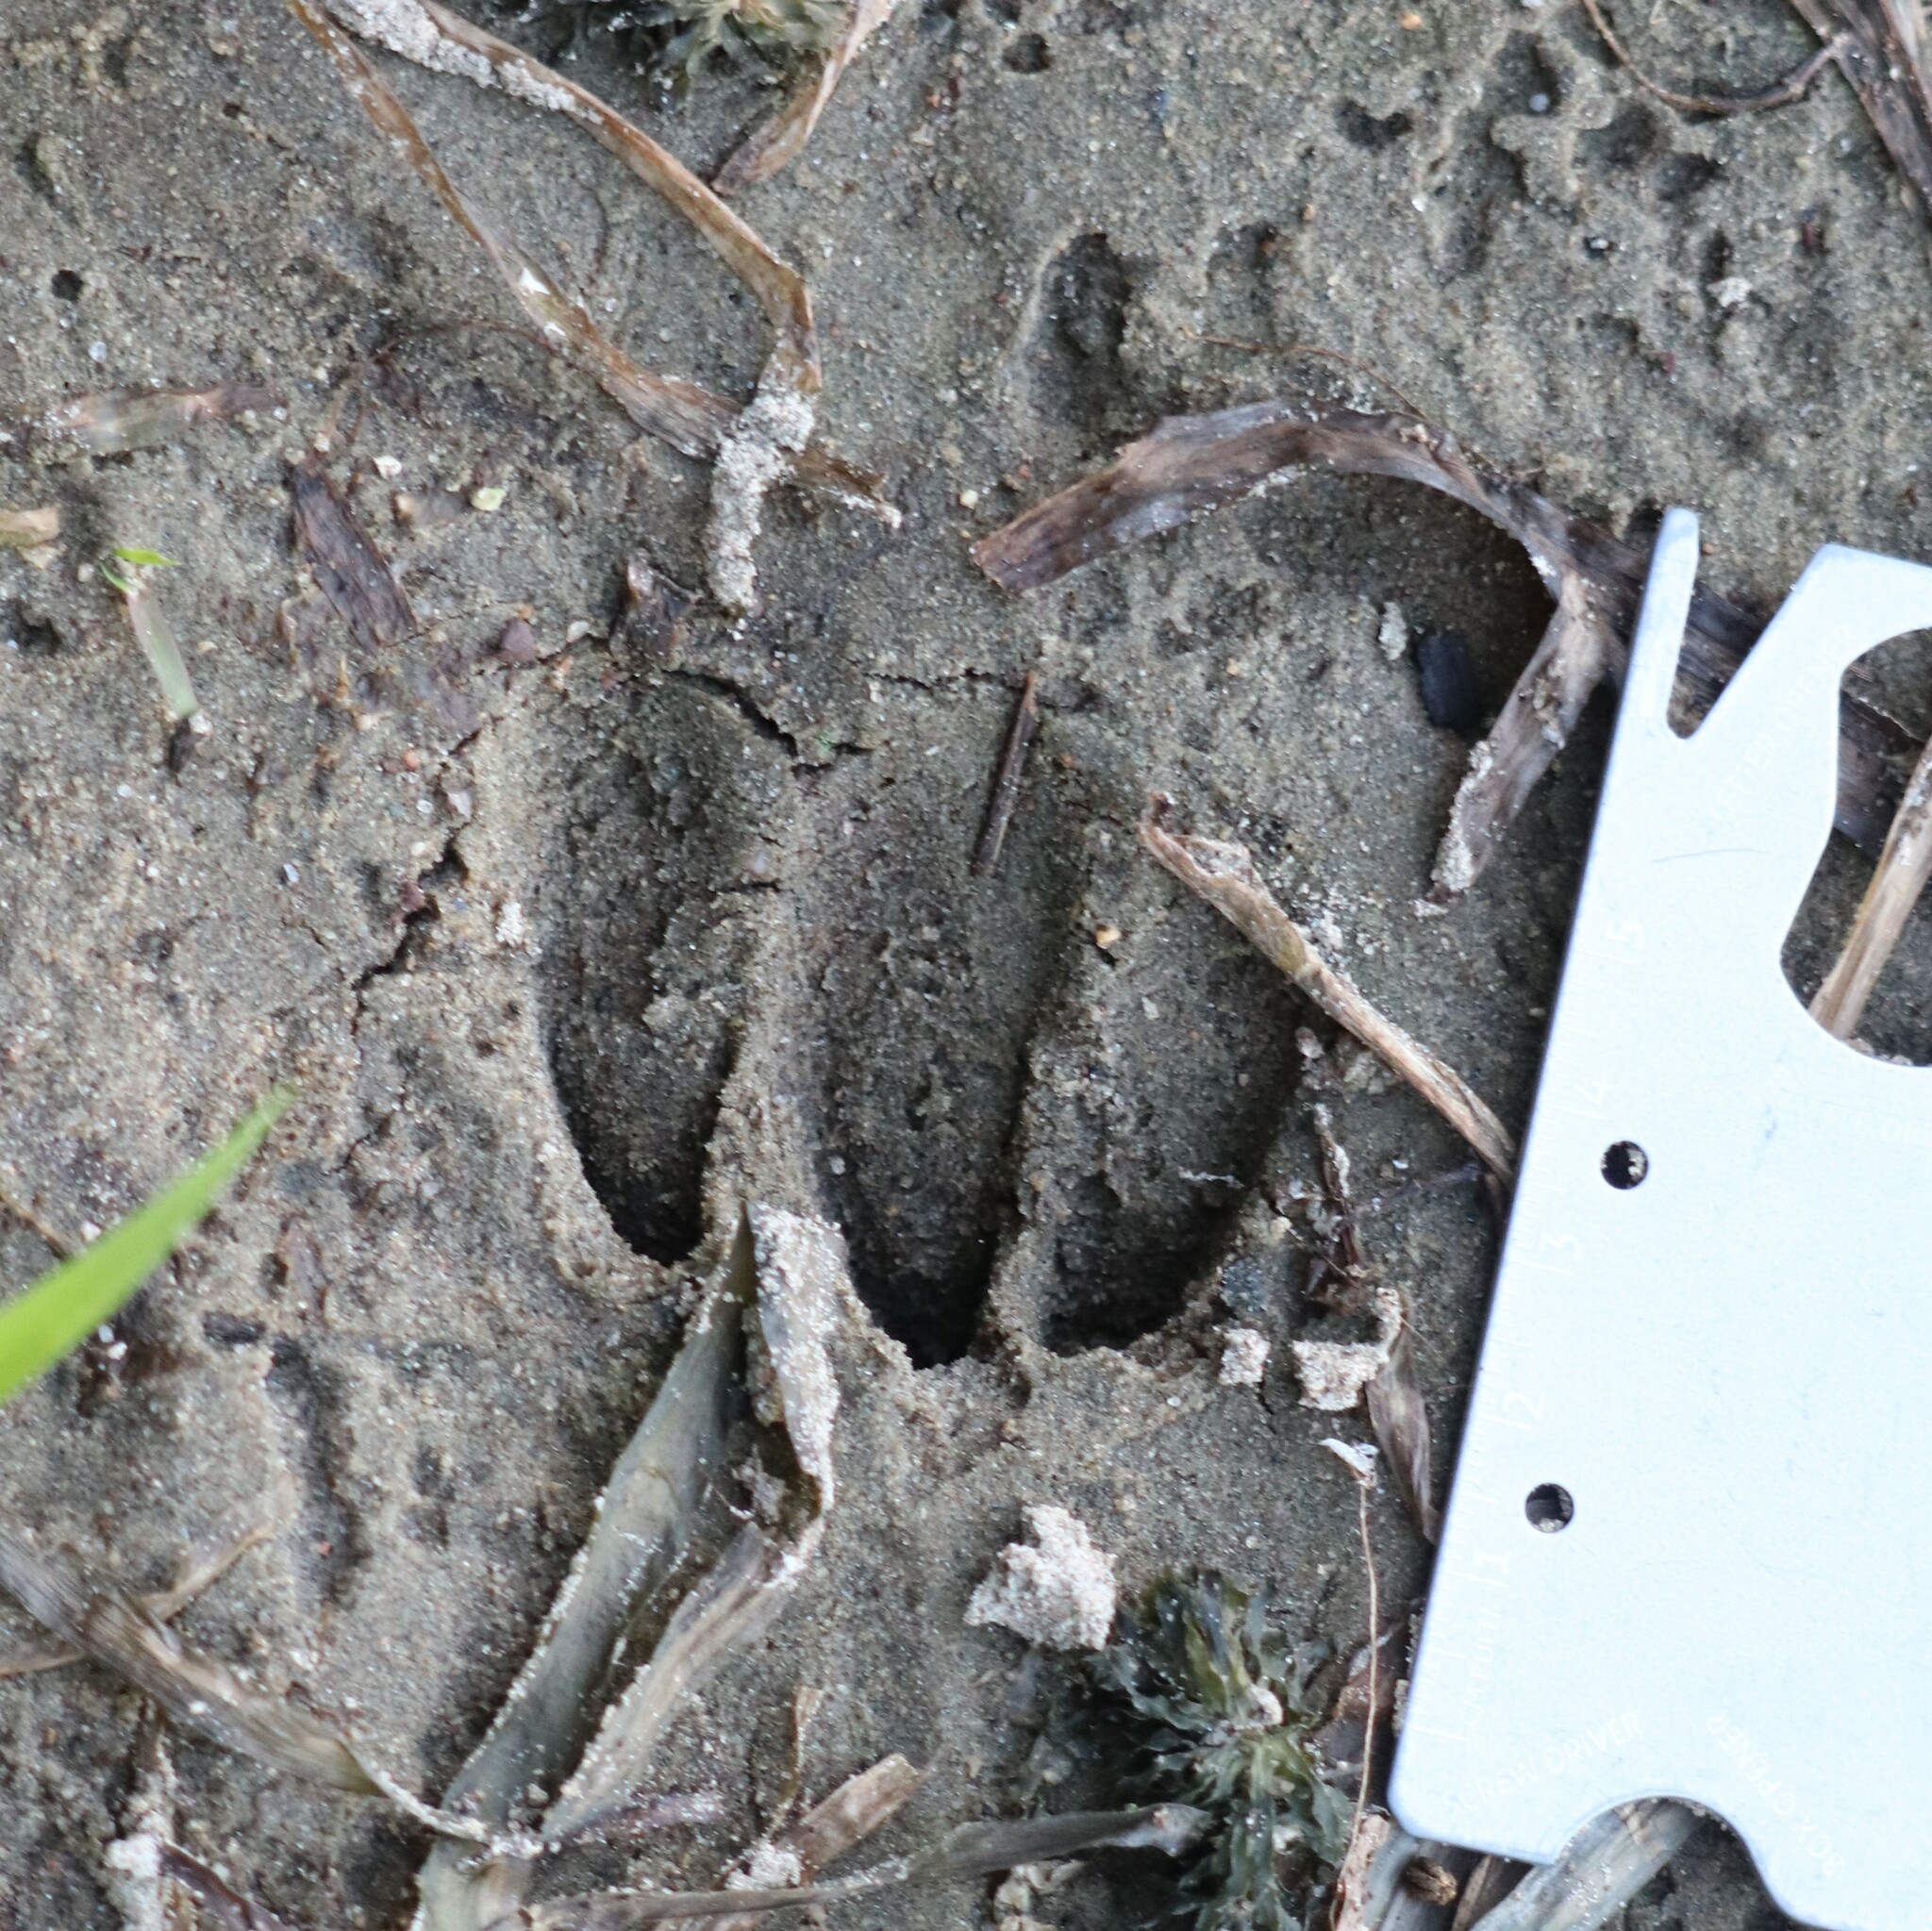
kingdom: Animalia
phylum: Chordata
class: Mammalia
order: Artiodactyla
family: Cervidae
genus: Odocoileus
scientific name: Odocoileus virginianus
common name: White-tailed deer
